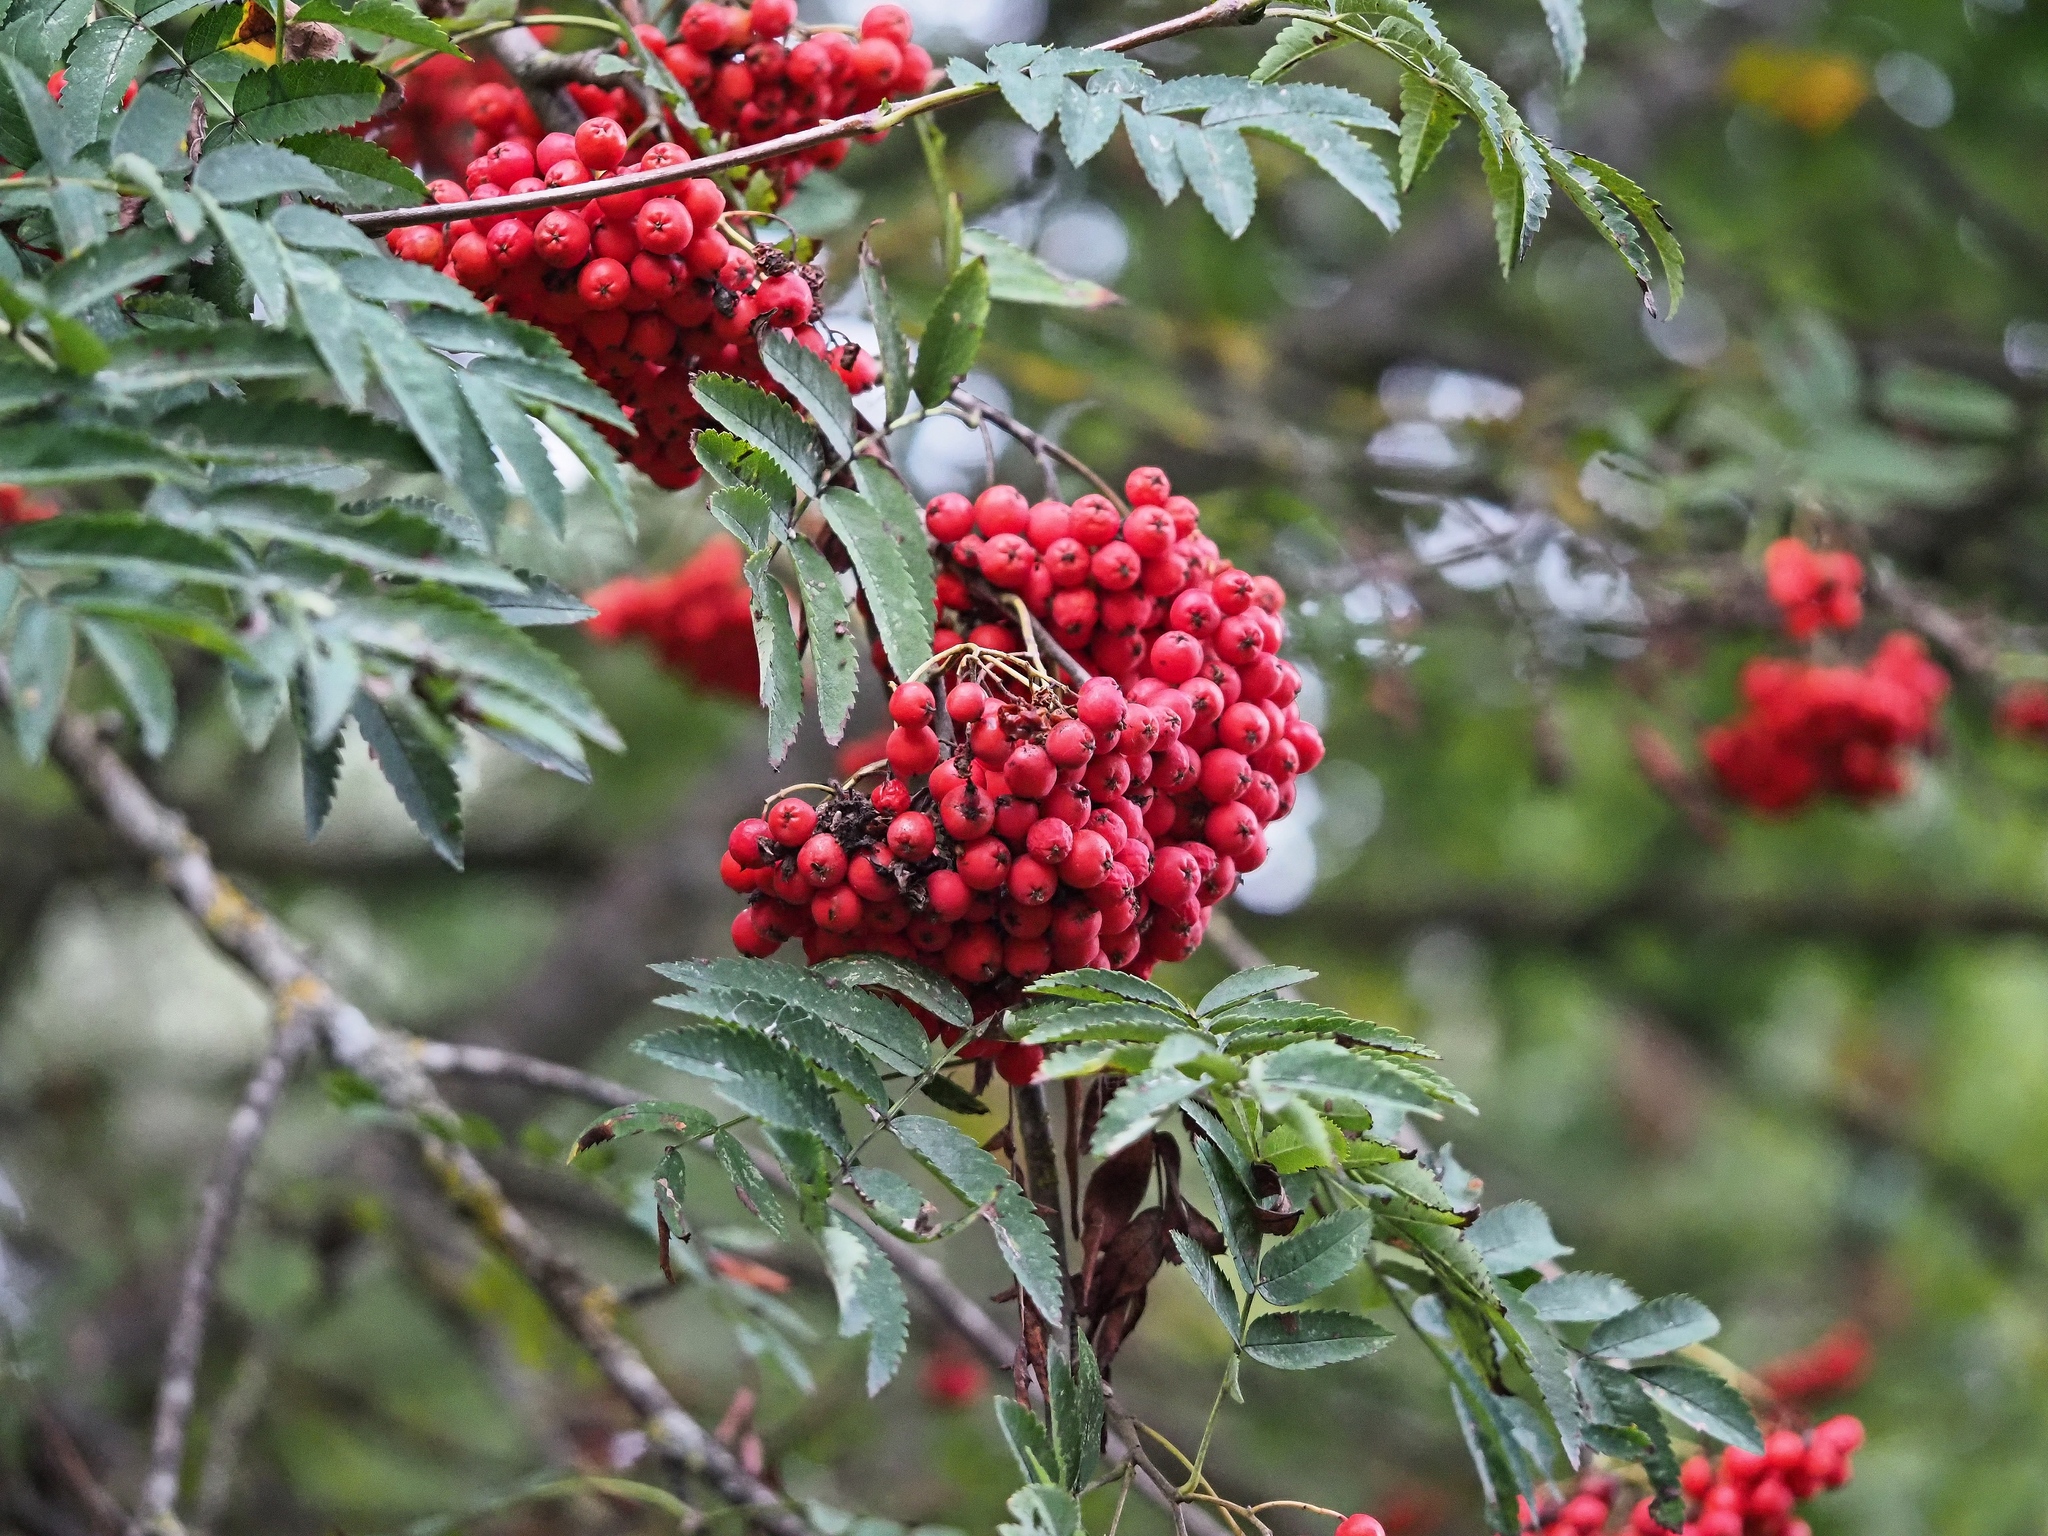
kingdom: Plantae
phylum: Tracheophyta
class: Magnoliopsida
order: Rosales
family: Rosaceae
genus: Sorbus
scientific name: Sorbus aucuparia
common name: Rowan
